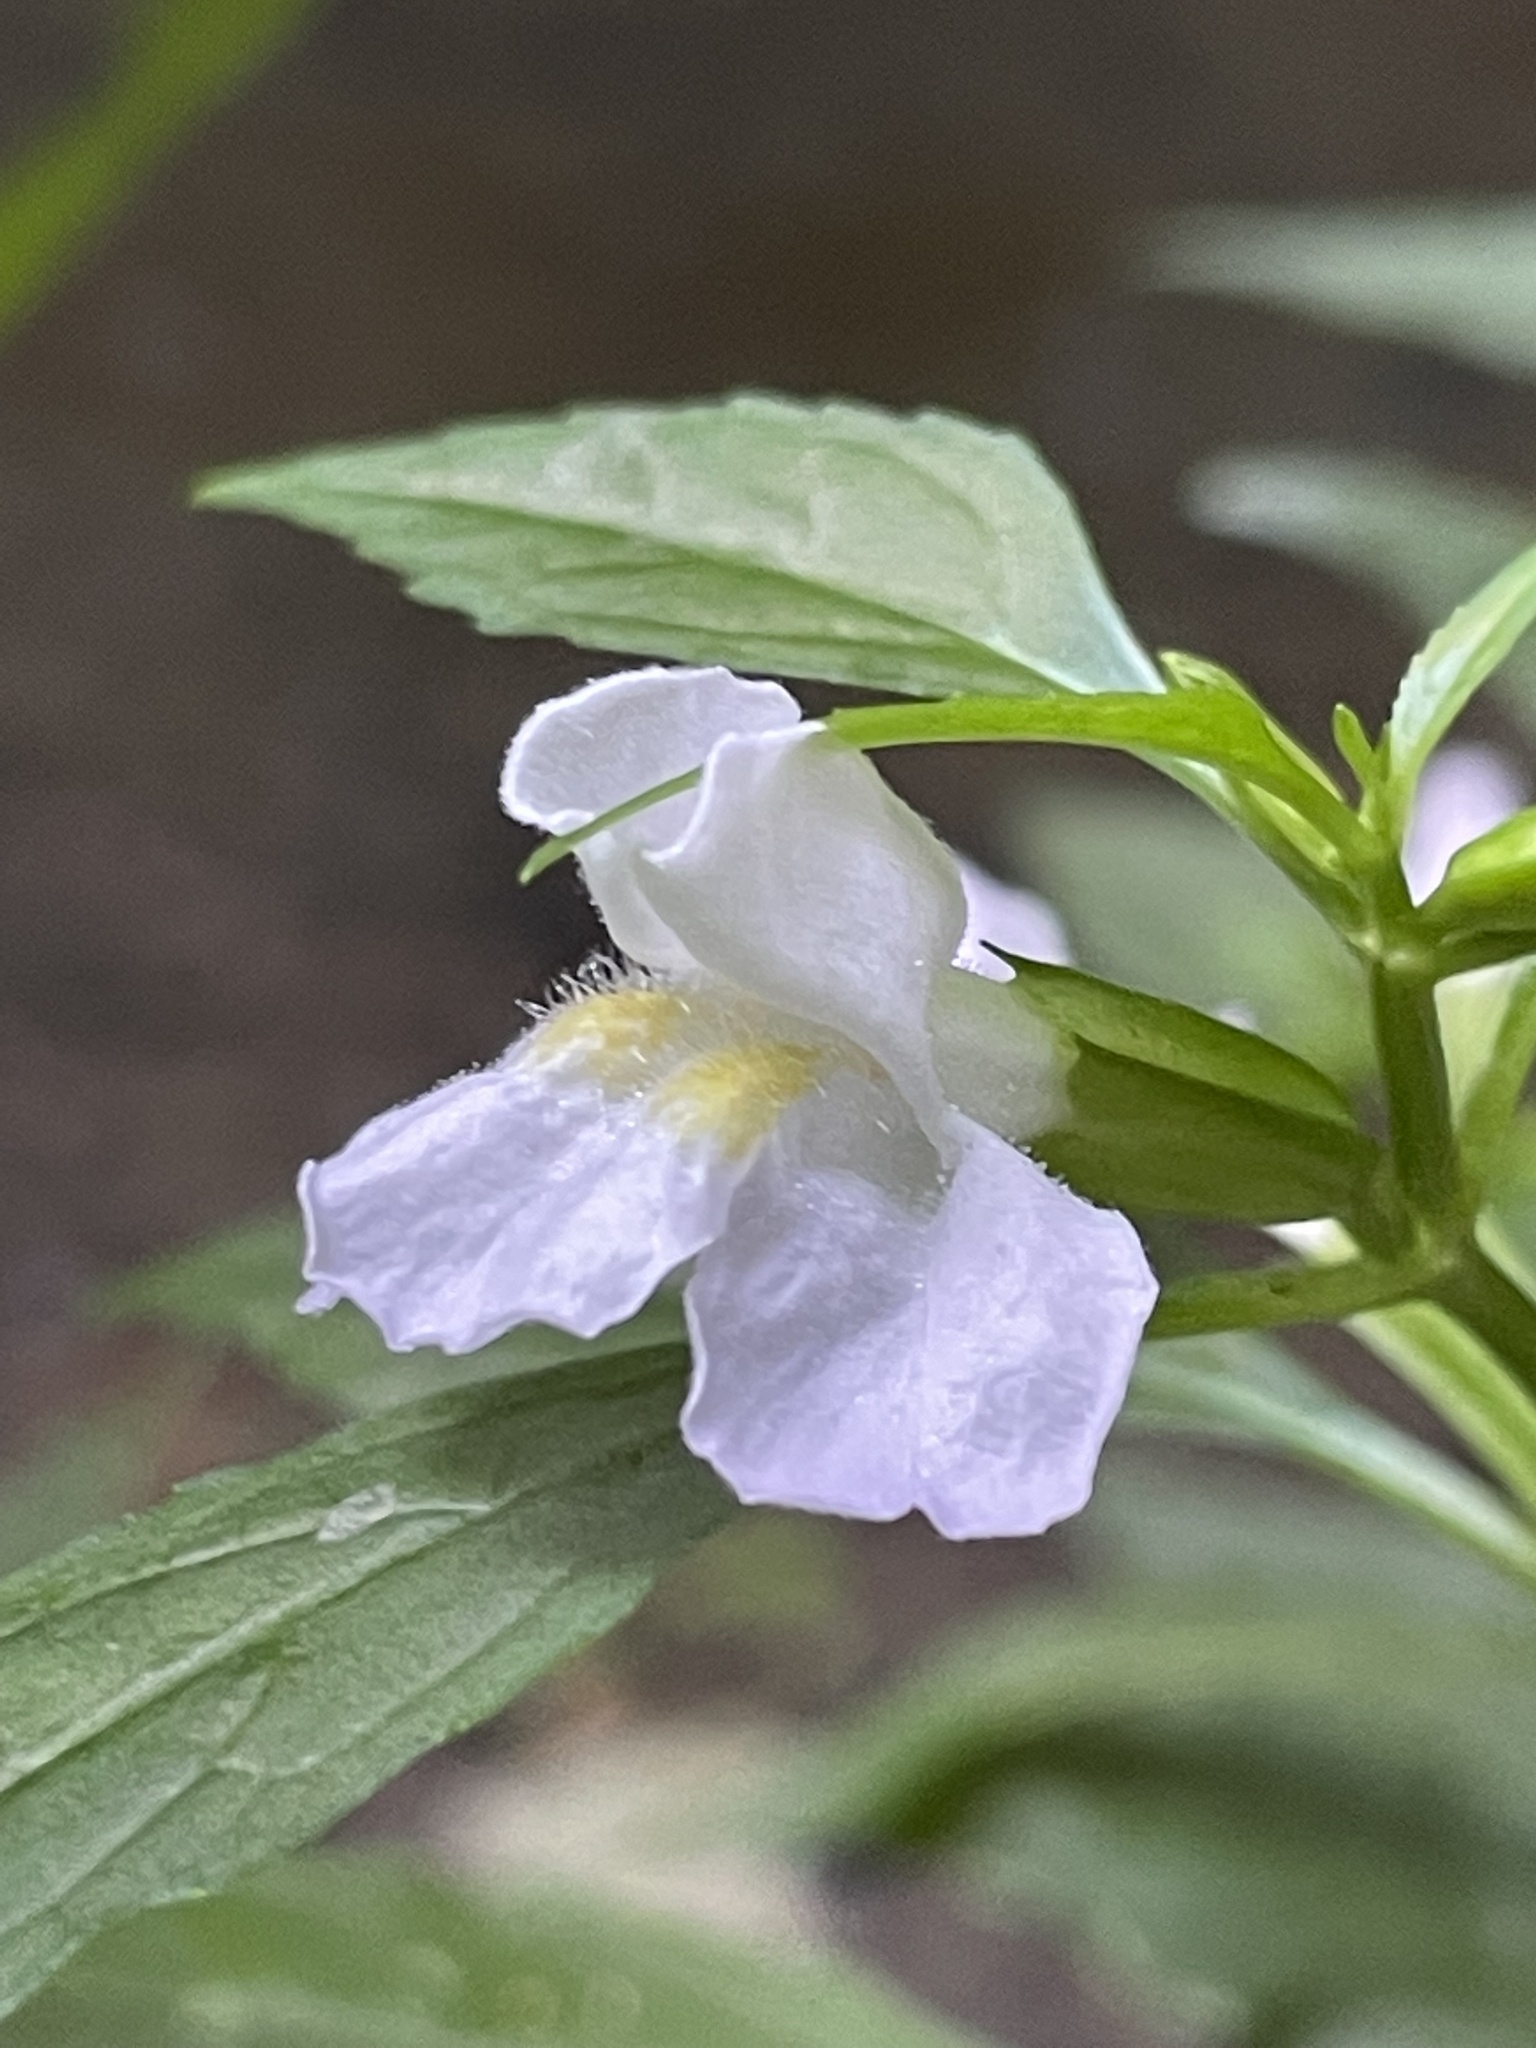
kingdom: Plantae
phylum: Tracheophyta
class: Magnoliopsida
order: Lamiales
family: Phrymaceae
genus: Mimulus
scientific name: Mimulus alatus
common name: Sharp-wing monkey-flower
